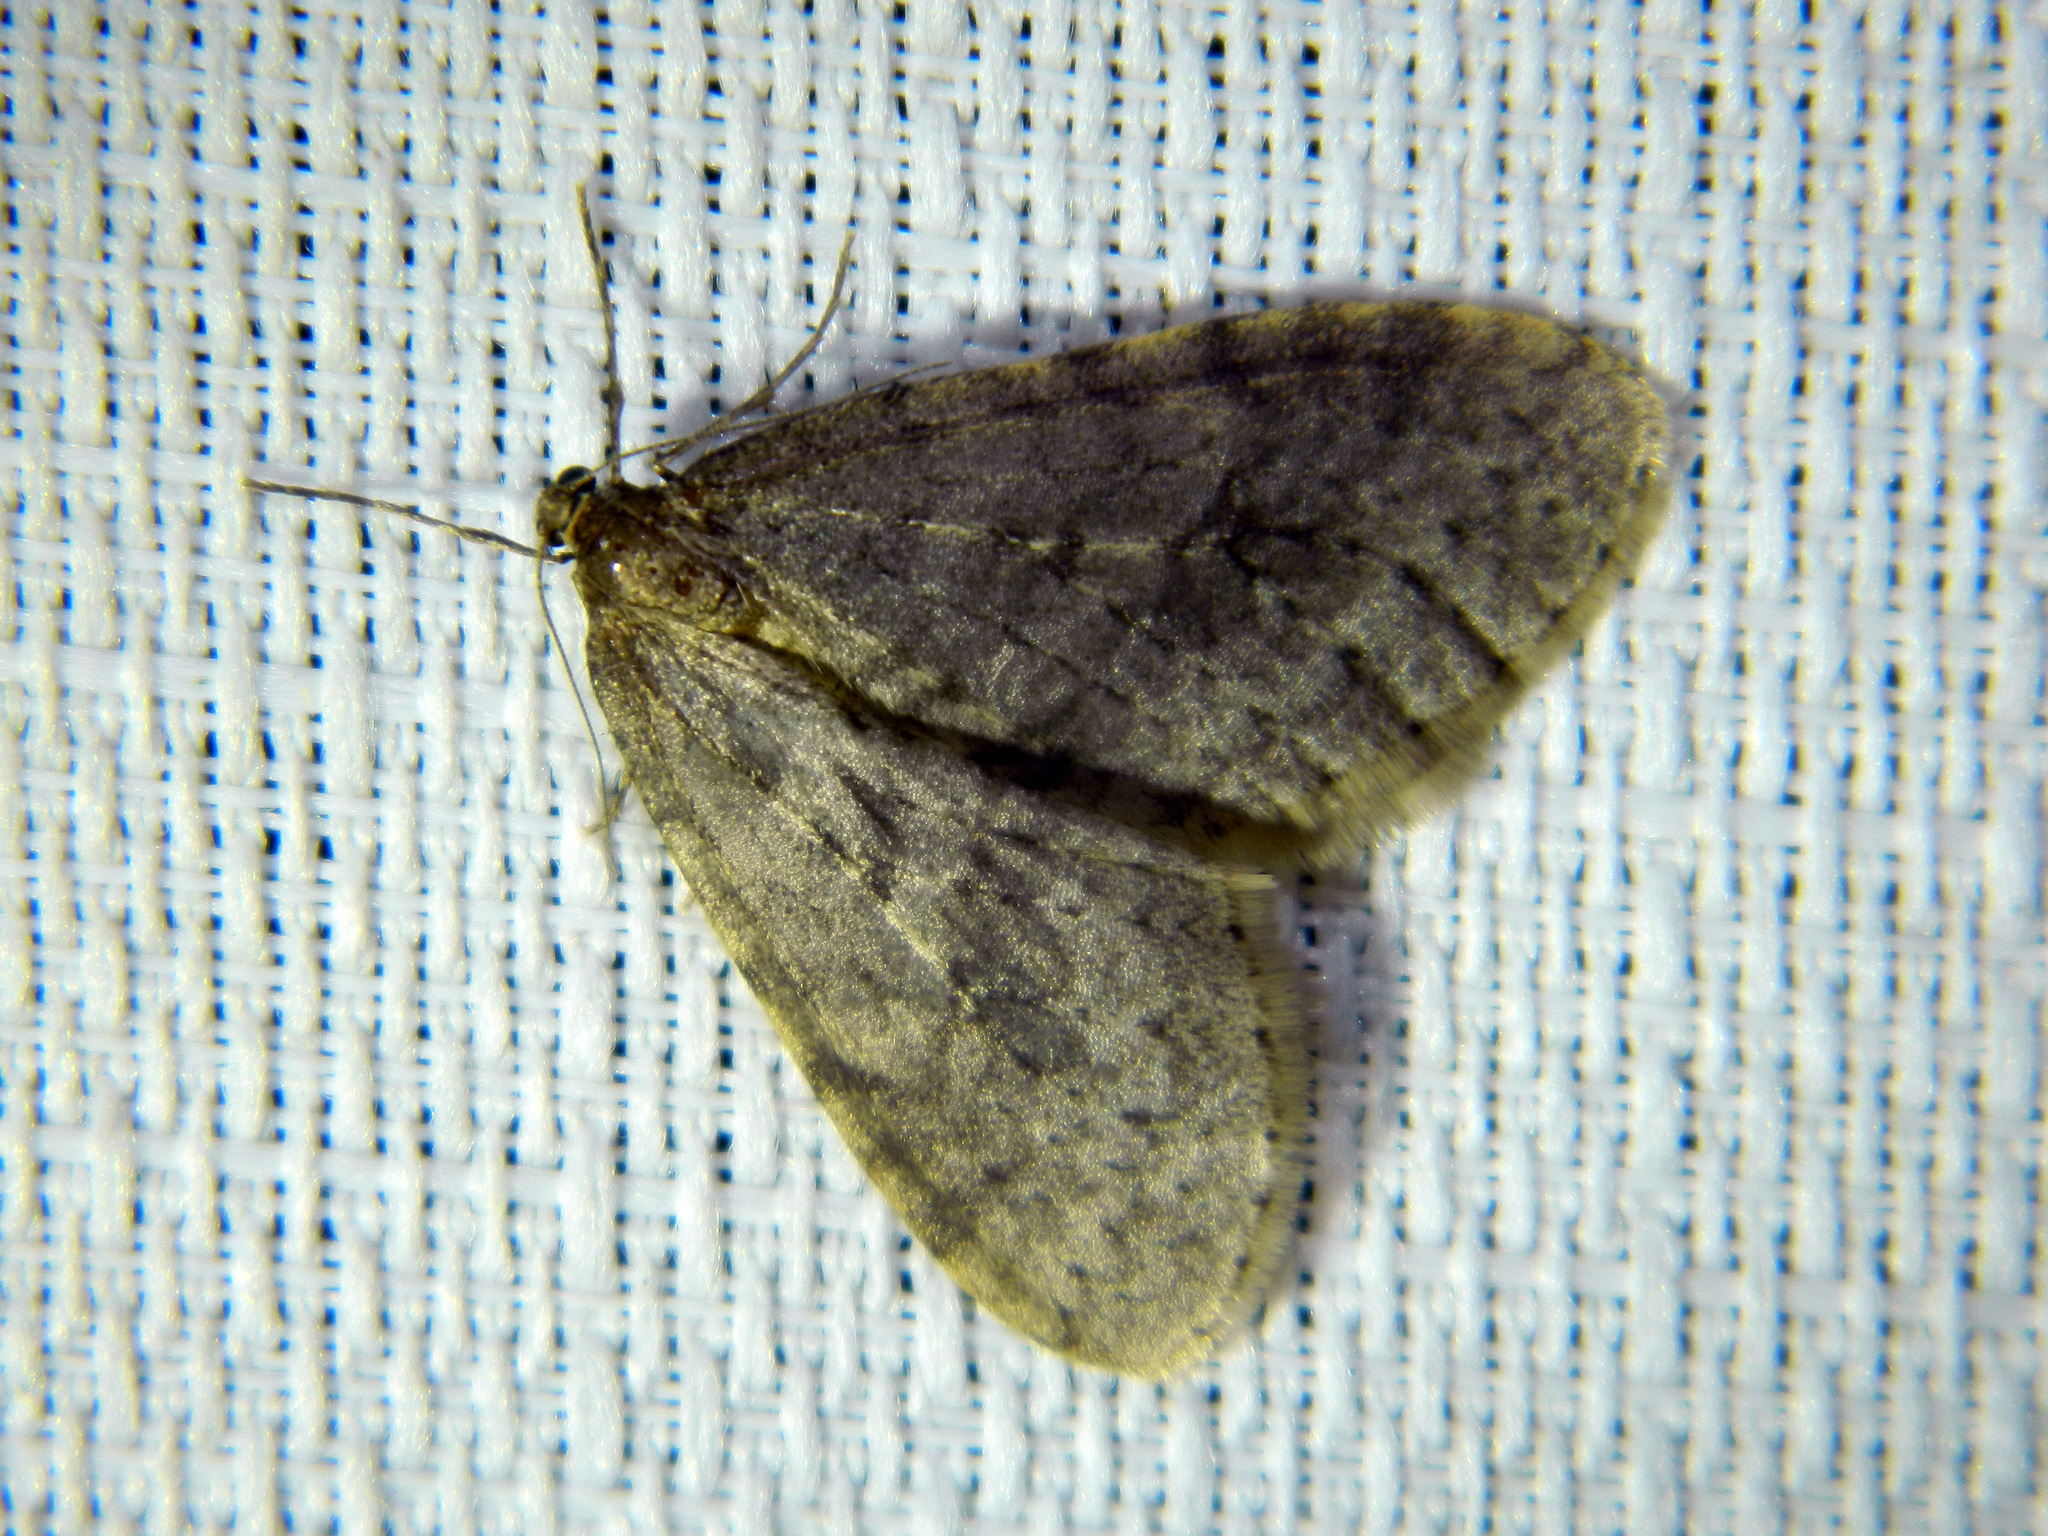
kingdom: Animalia
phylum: Arthropoda
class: Insecta
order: Lepidoptera
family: Geometridae
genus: Operophtera
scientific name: Operophtera bruceata
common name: Bruce spanworm
